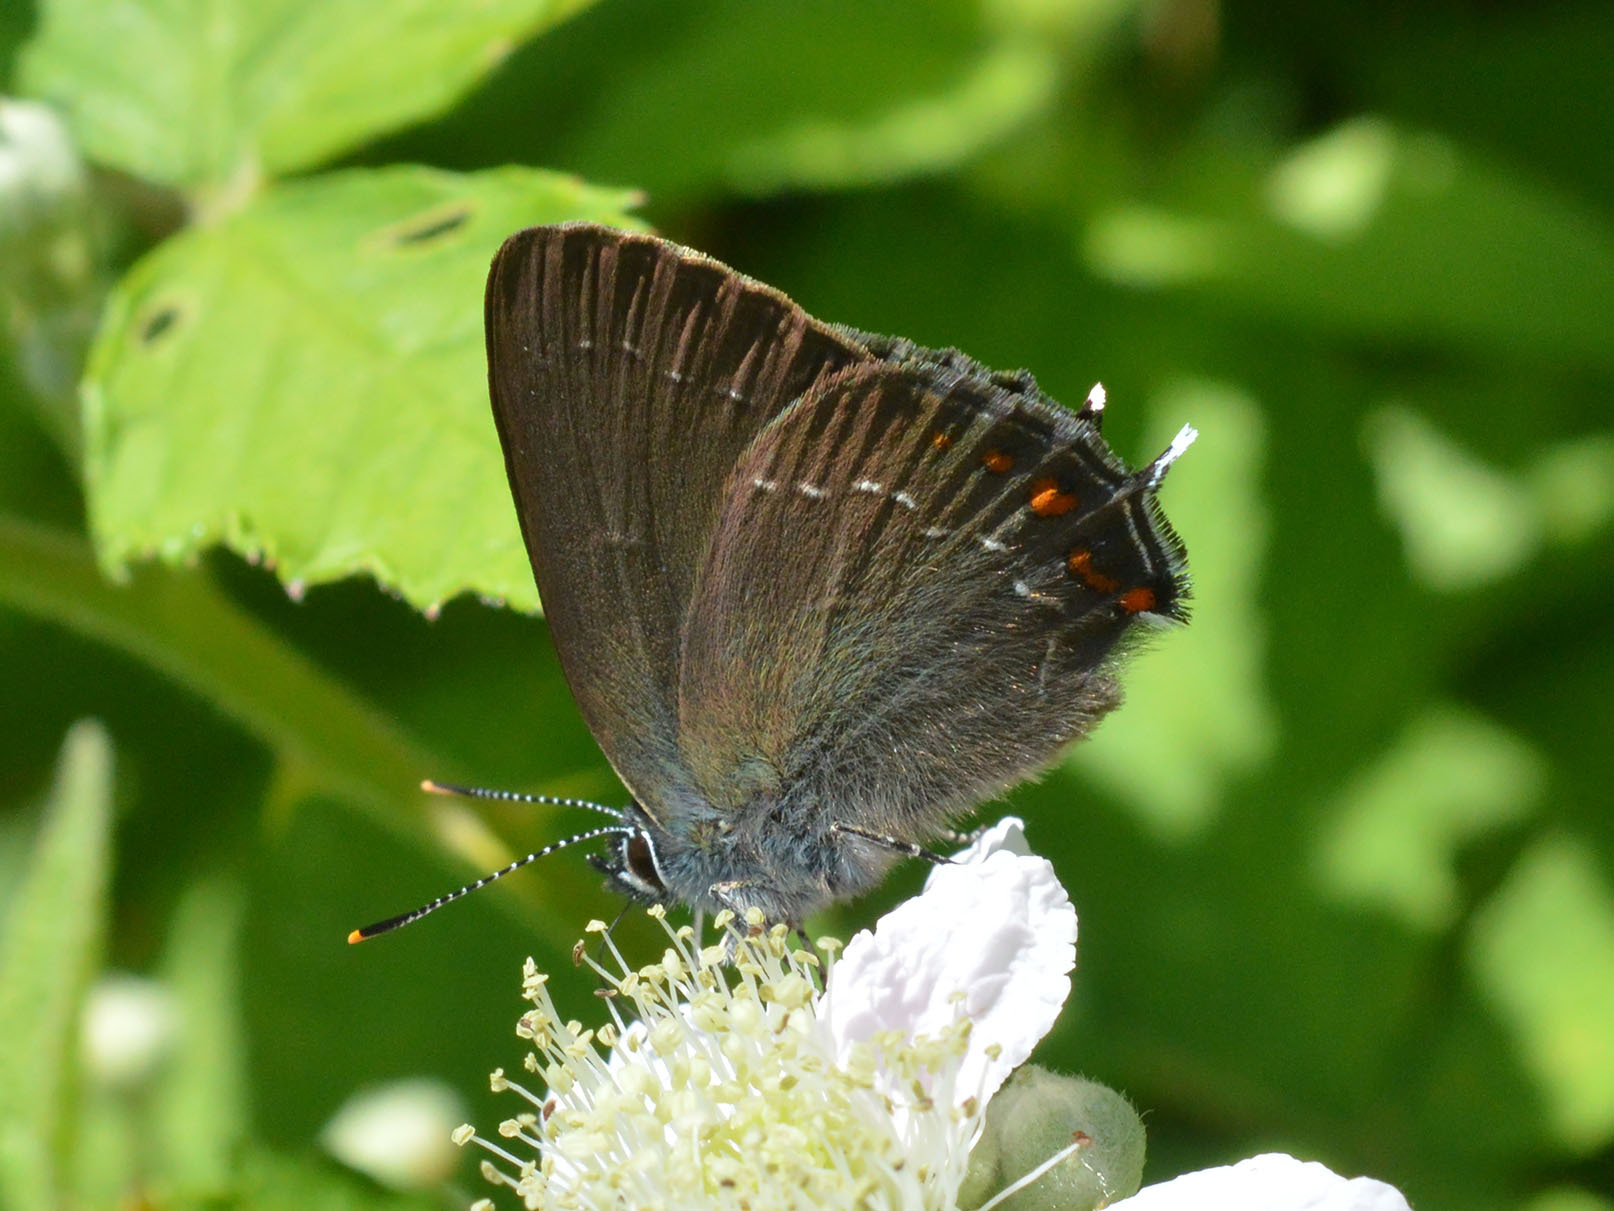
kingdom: Animalia
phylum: Arthropoda
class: Insecta
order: Lepidoptera
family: Lycaenidae
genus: Nordmannia
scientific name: Nordmannia ilicis
